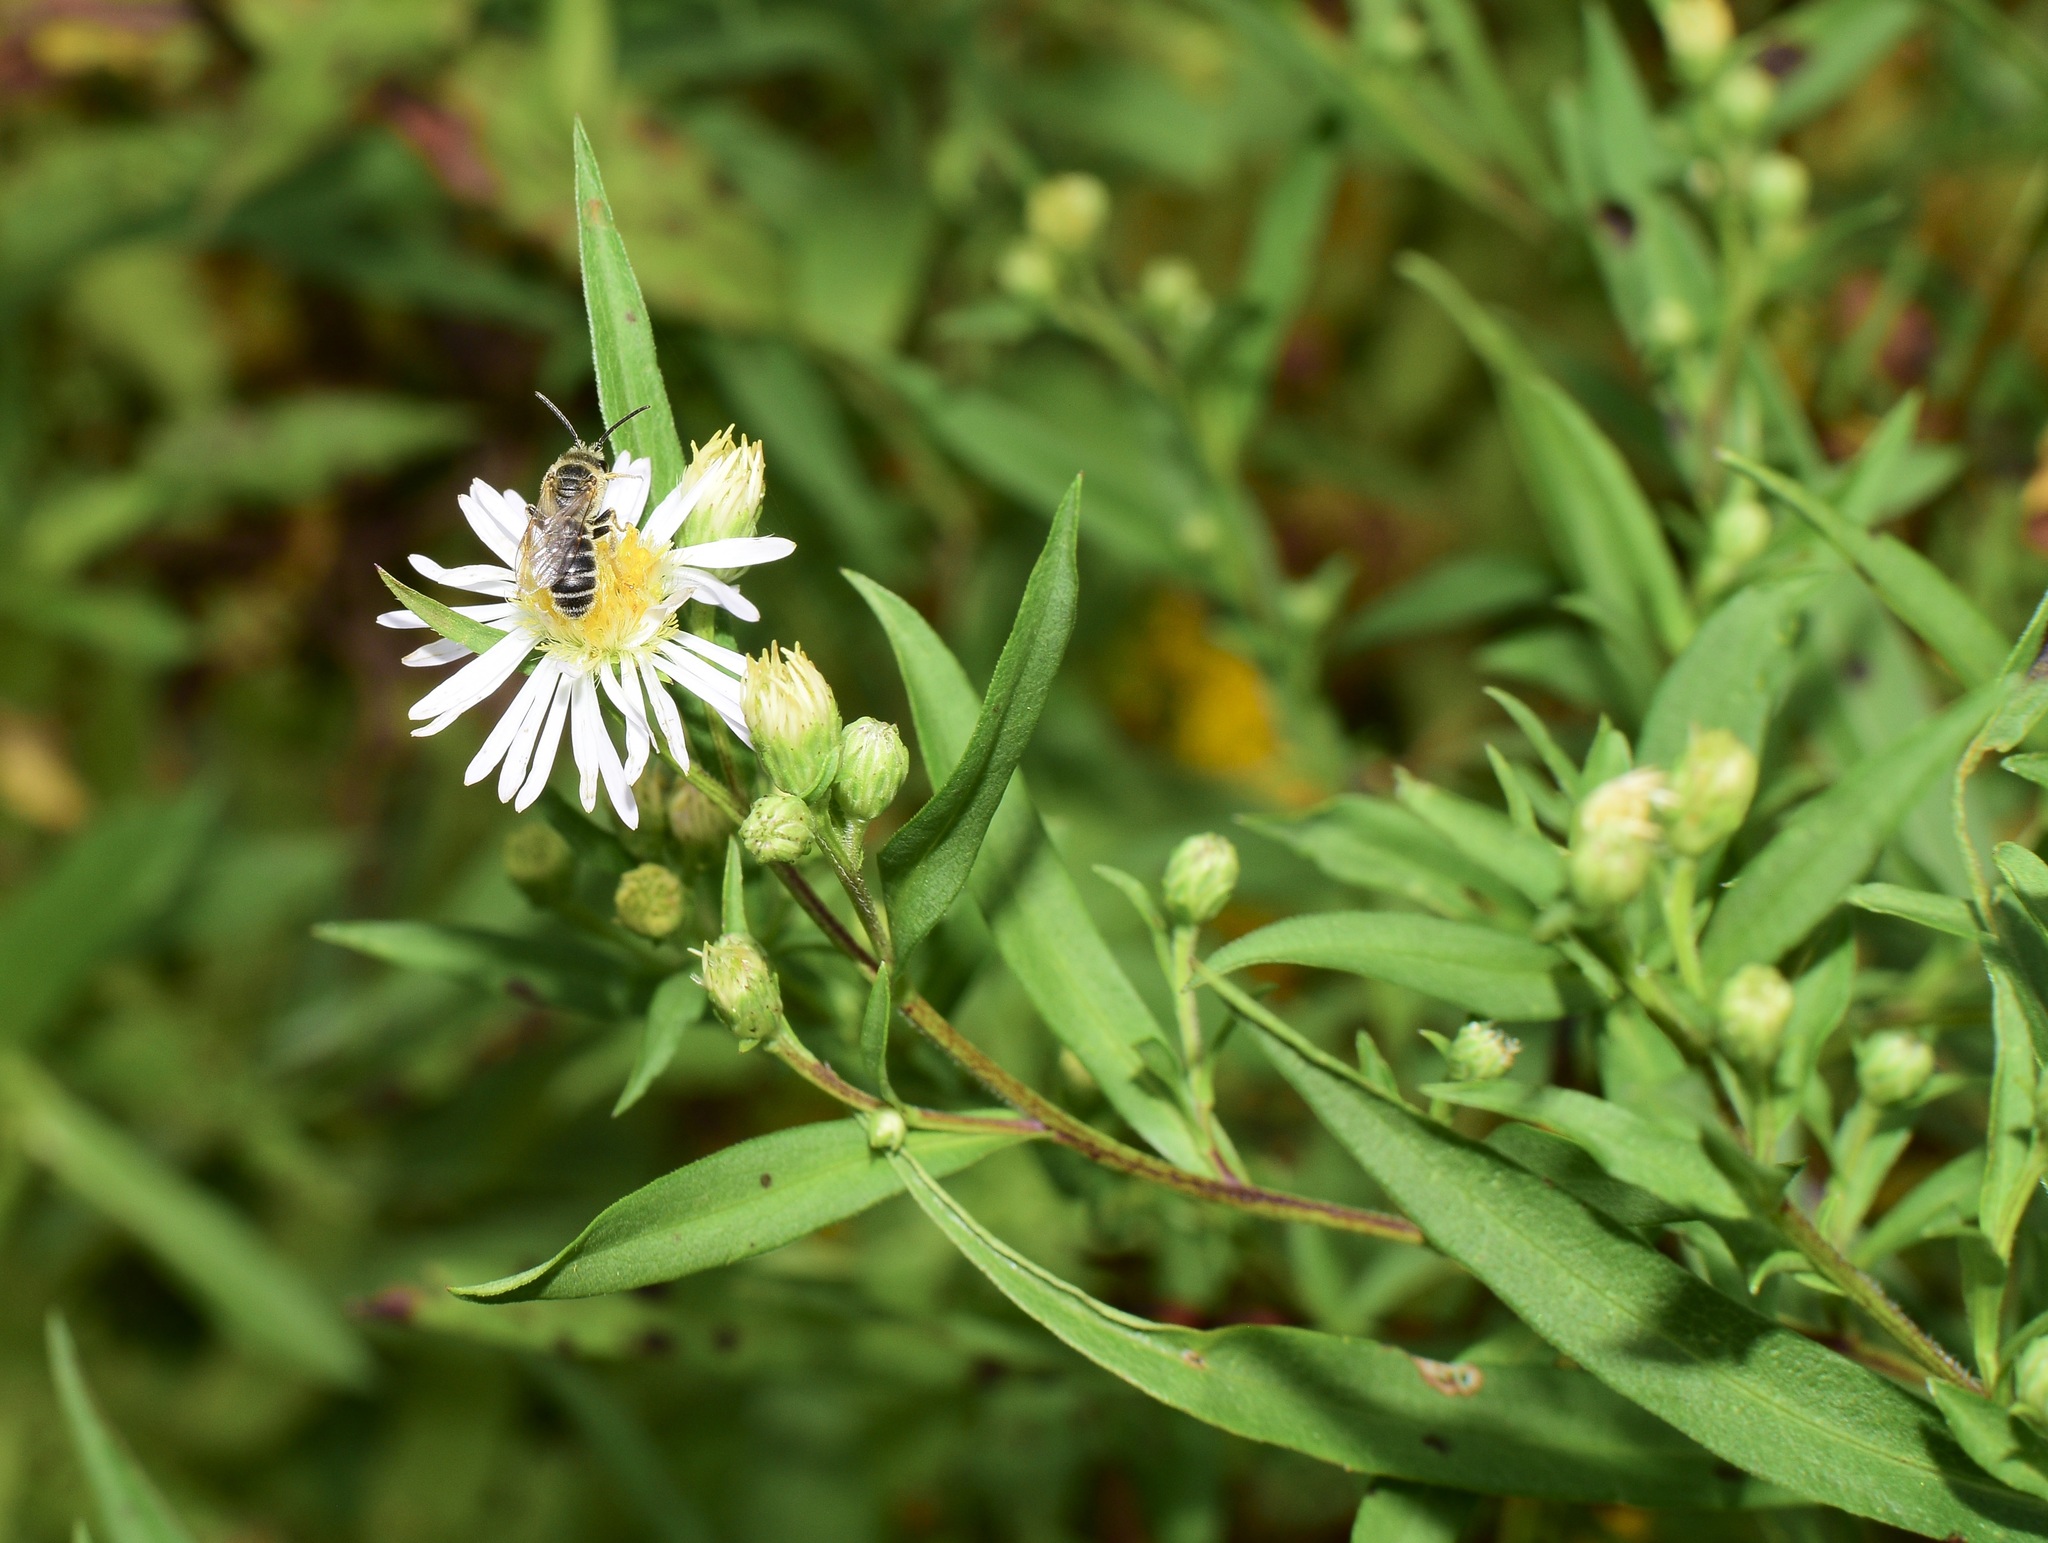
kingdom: Animalia
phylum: Arthropoda
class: Insecta
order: Hymenoptera
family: Halictidae
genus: Halictus
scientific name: Halictus ligatus
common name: Ligated furrow bee
